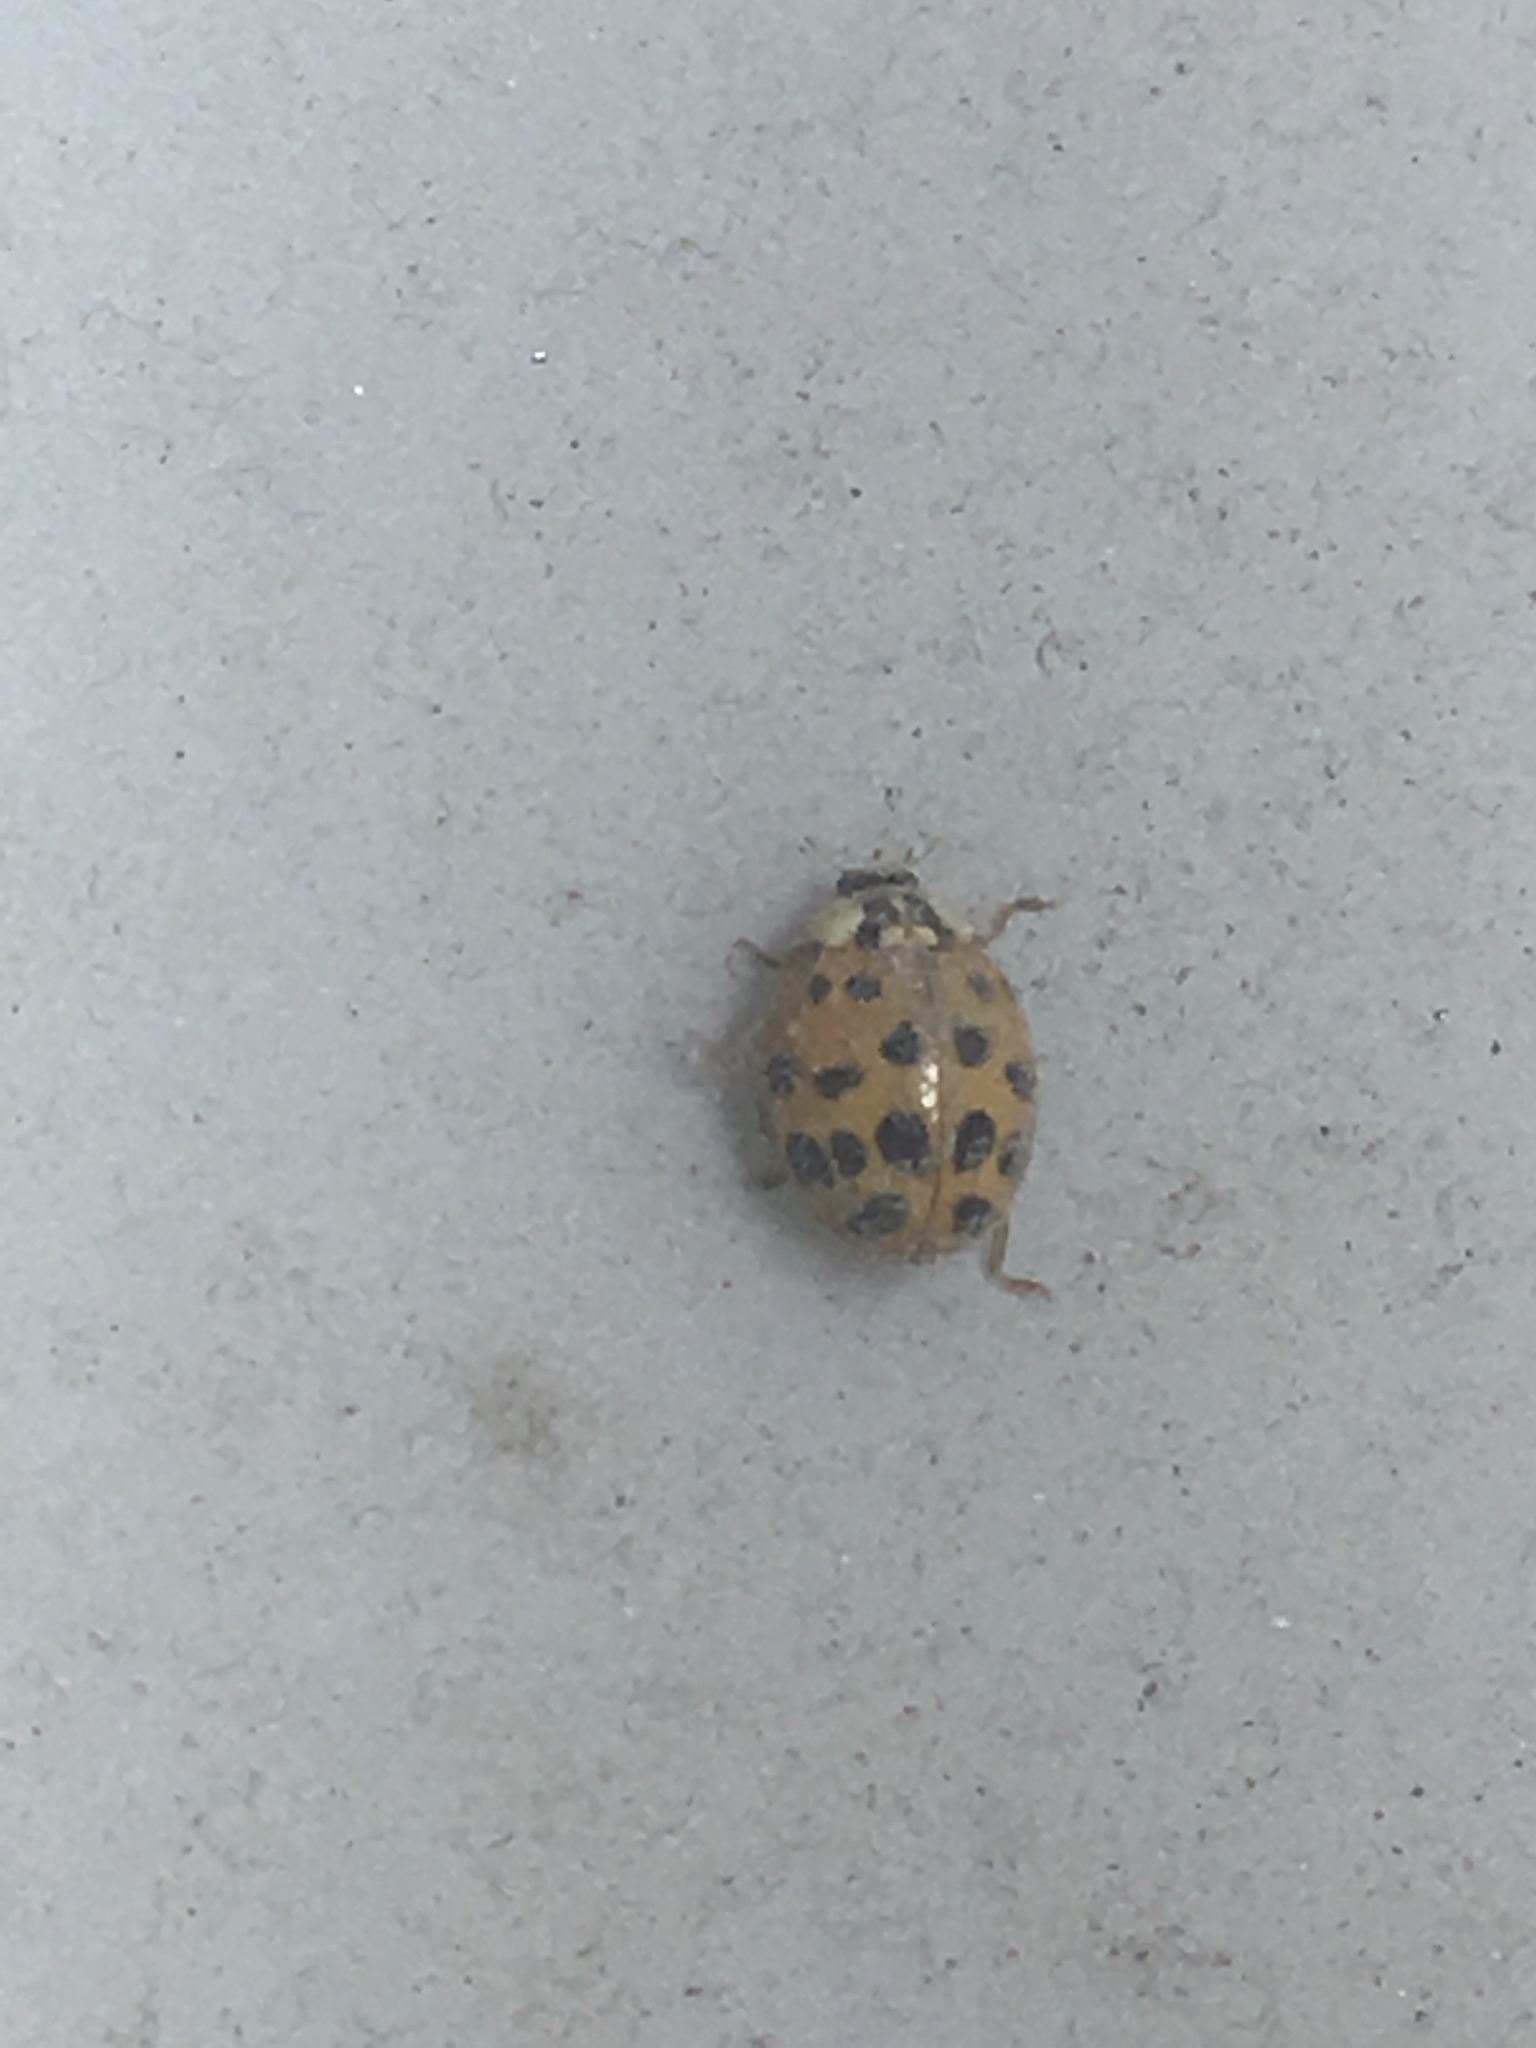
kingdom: Animalia
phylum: Arthropoda
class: Insecta
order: Coleoptera
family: Coccinellidae
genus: Harmonia
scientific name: Harmonia axyridis
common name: Harlequin ladybird
